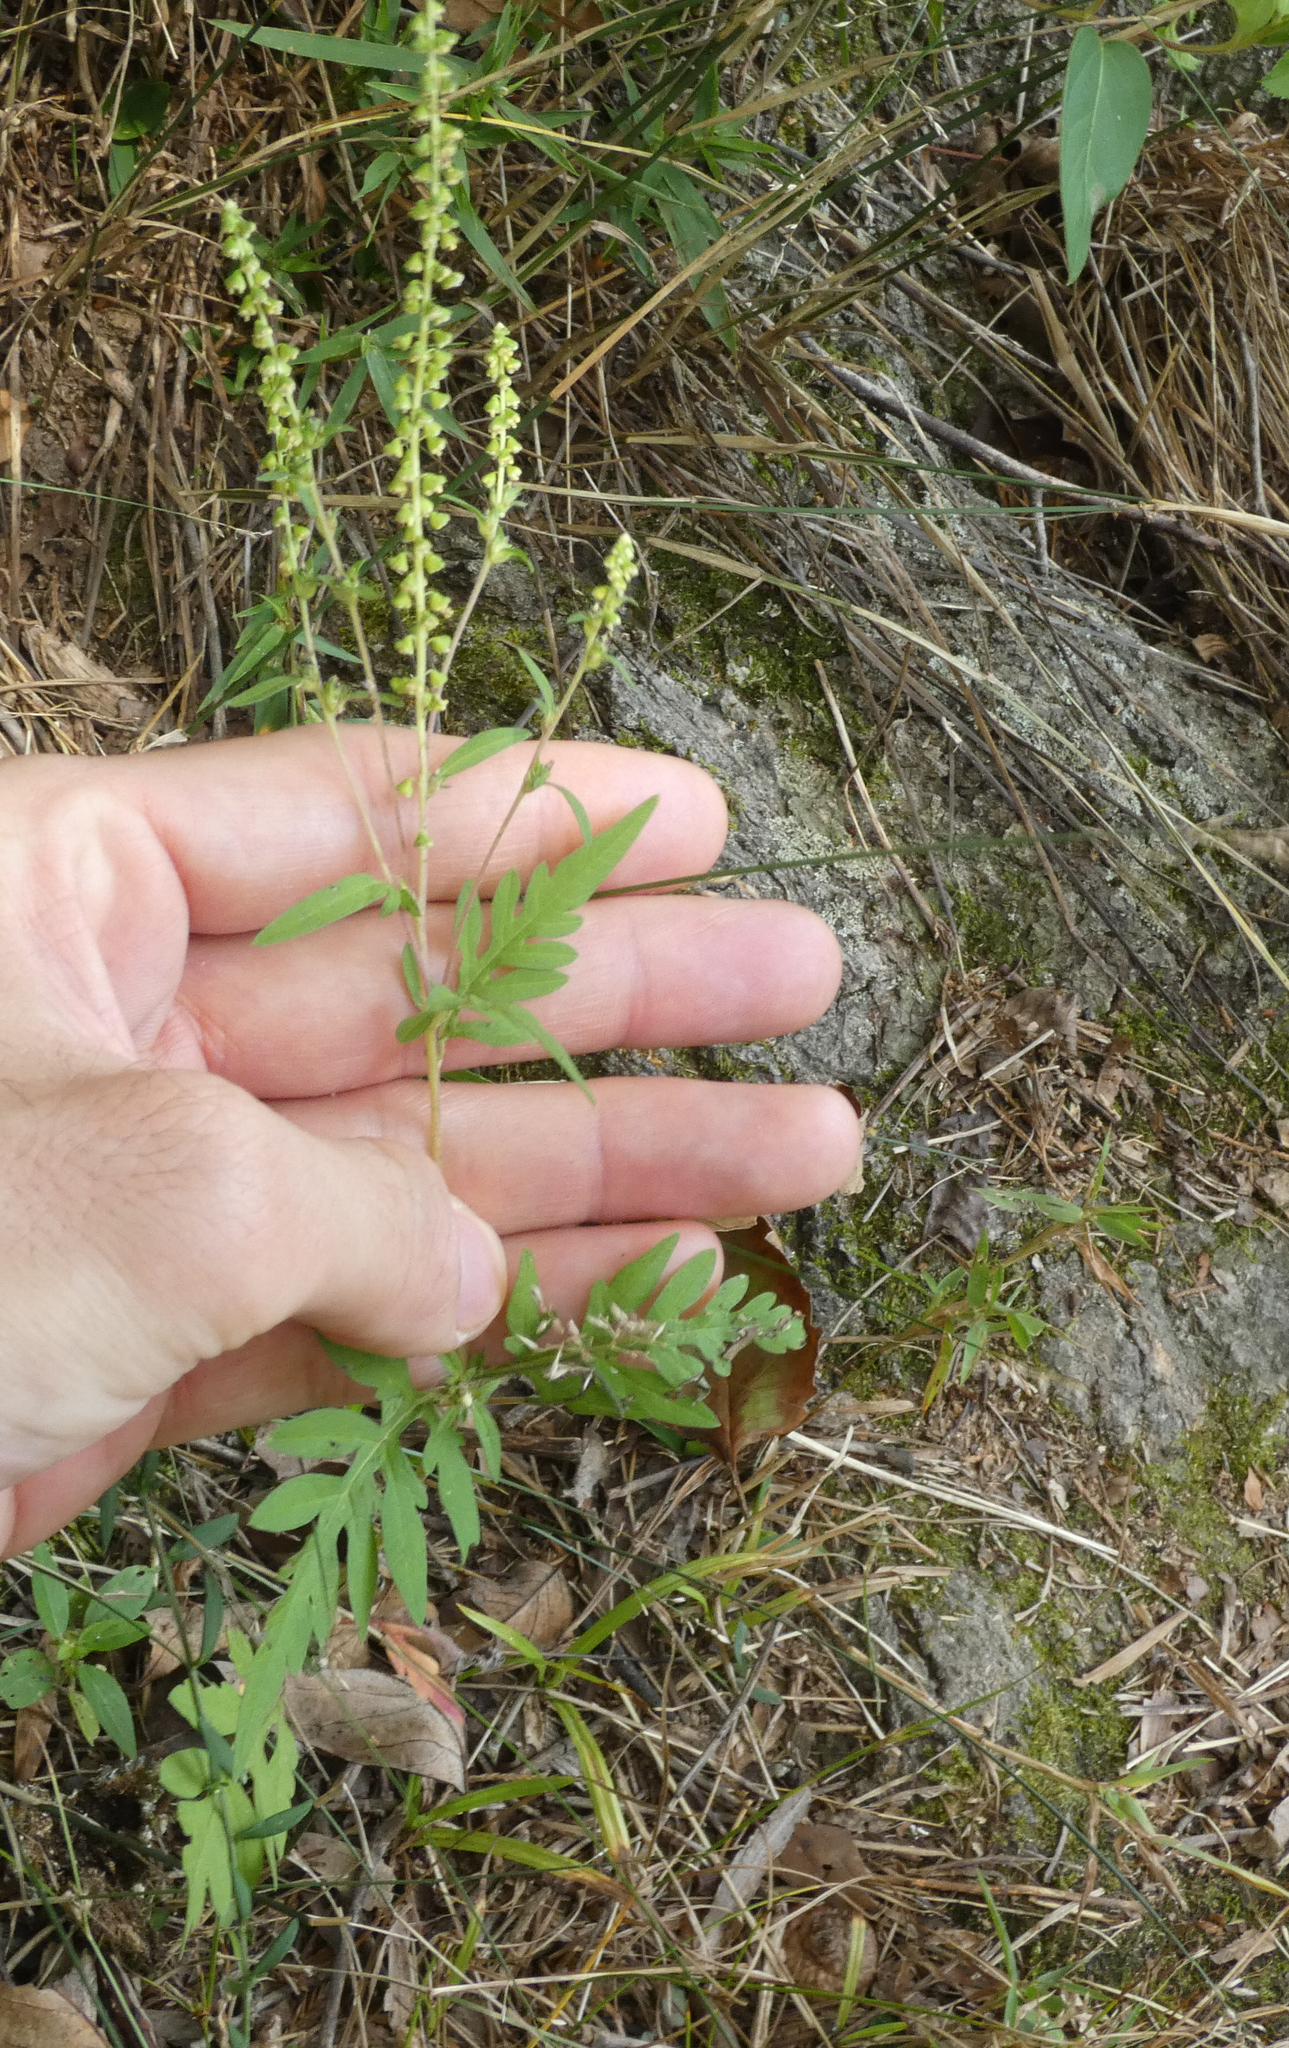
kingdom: Plantae
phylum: Tracheophyta
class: Magnoliopsida
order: Asterales
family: Asteraceae
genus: Ambrosia
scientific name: Ambrosia artemisiifolia
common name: Annual ragweed
